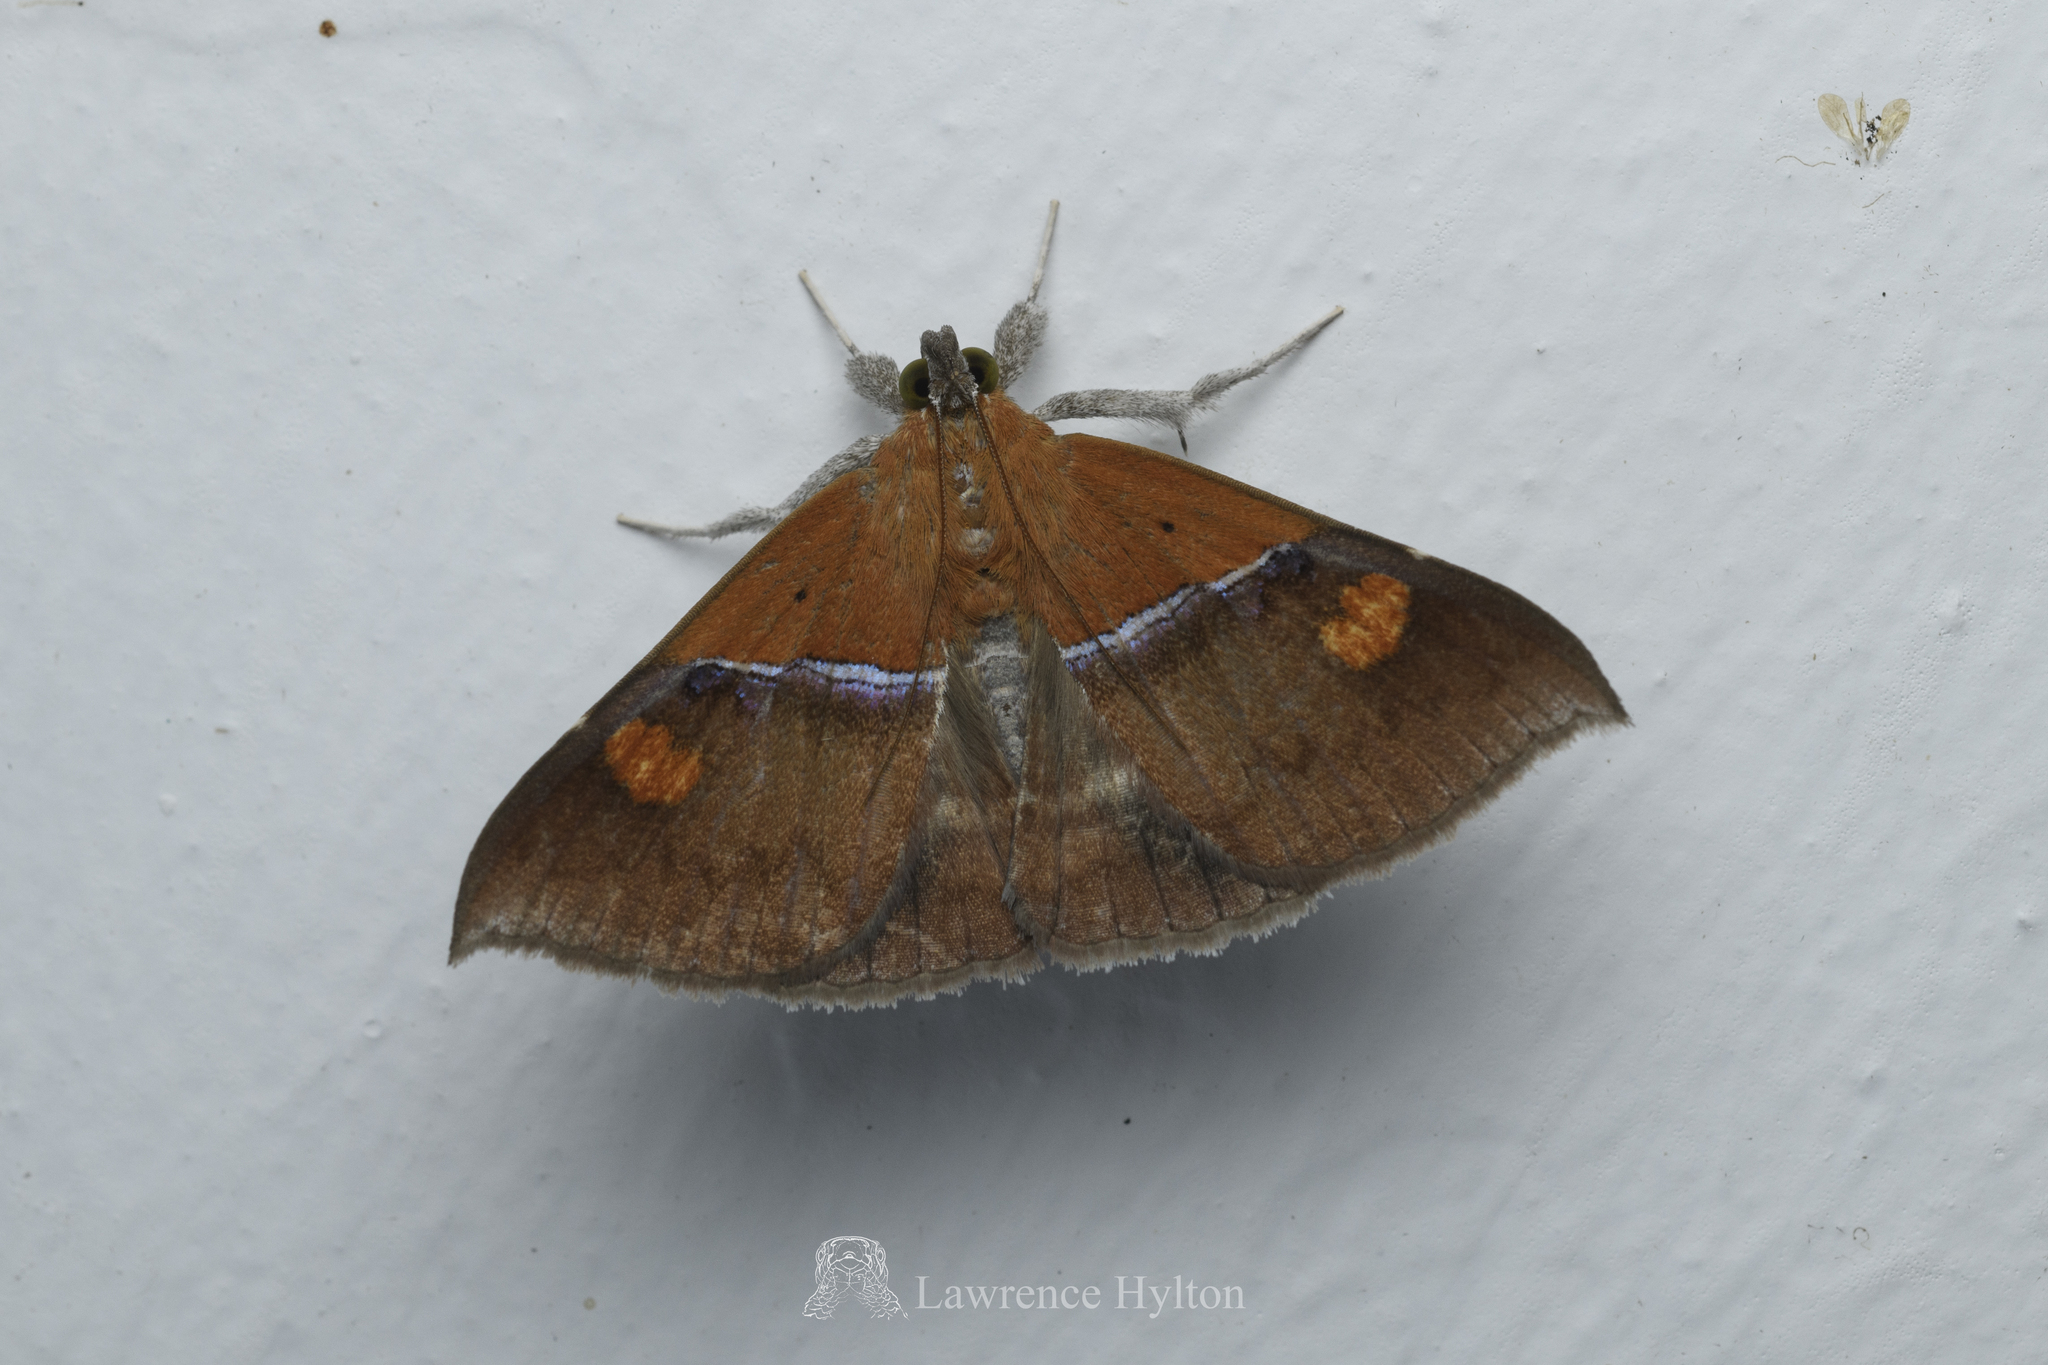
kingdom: Animalia
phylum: Arthropoda
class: Insecta
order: Lepidoptera
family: Erebidae
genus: Sympis
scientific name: Sympis rufibasis
